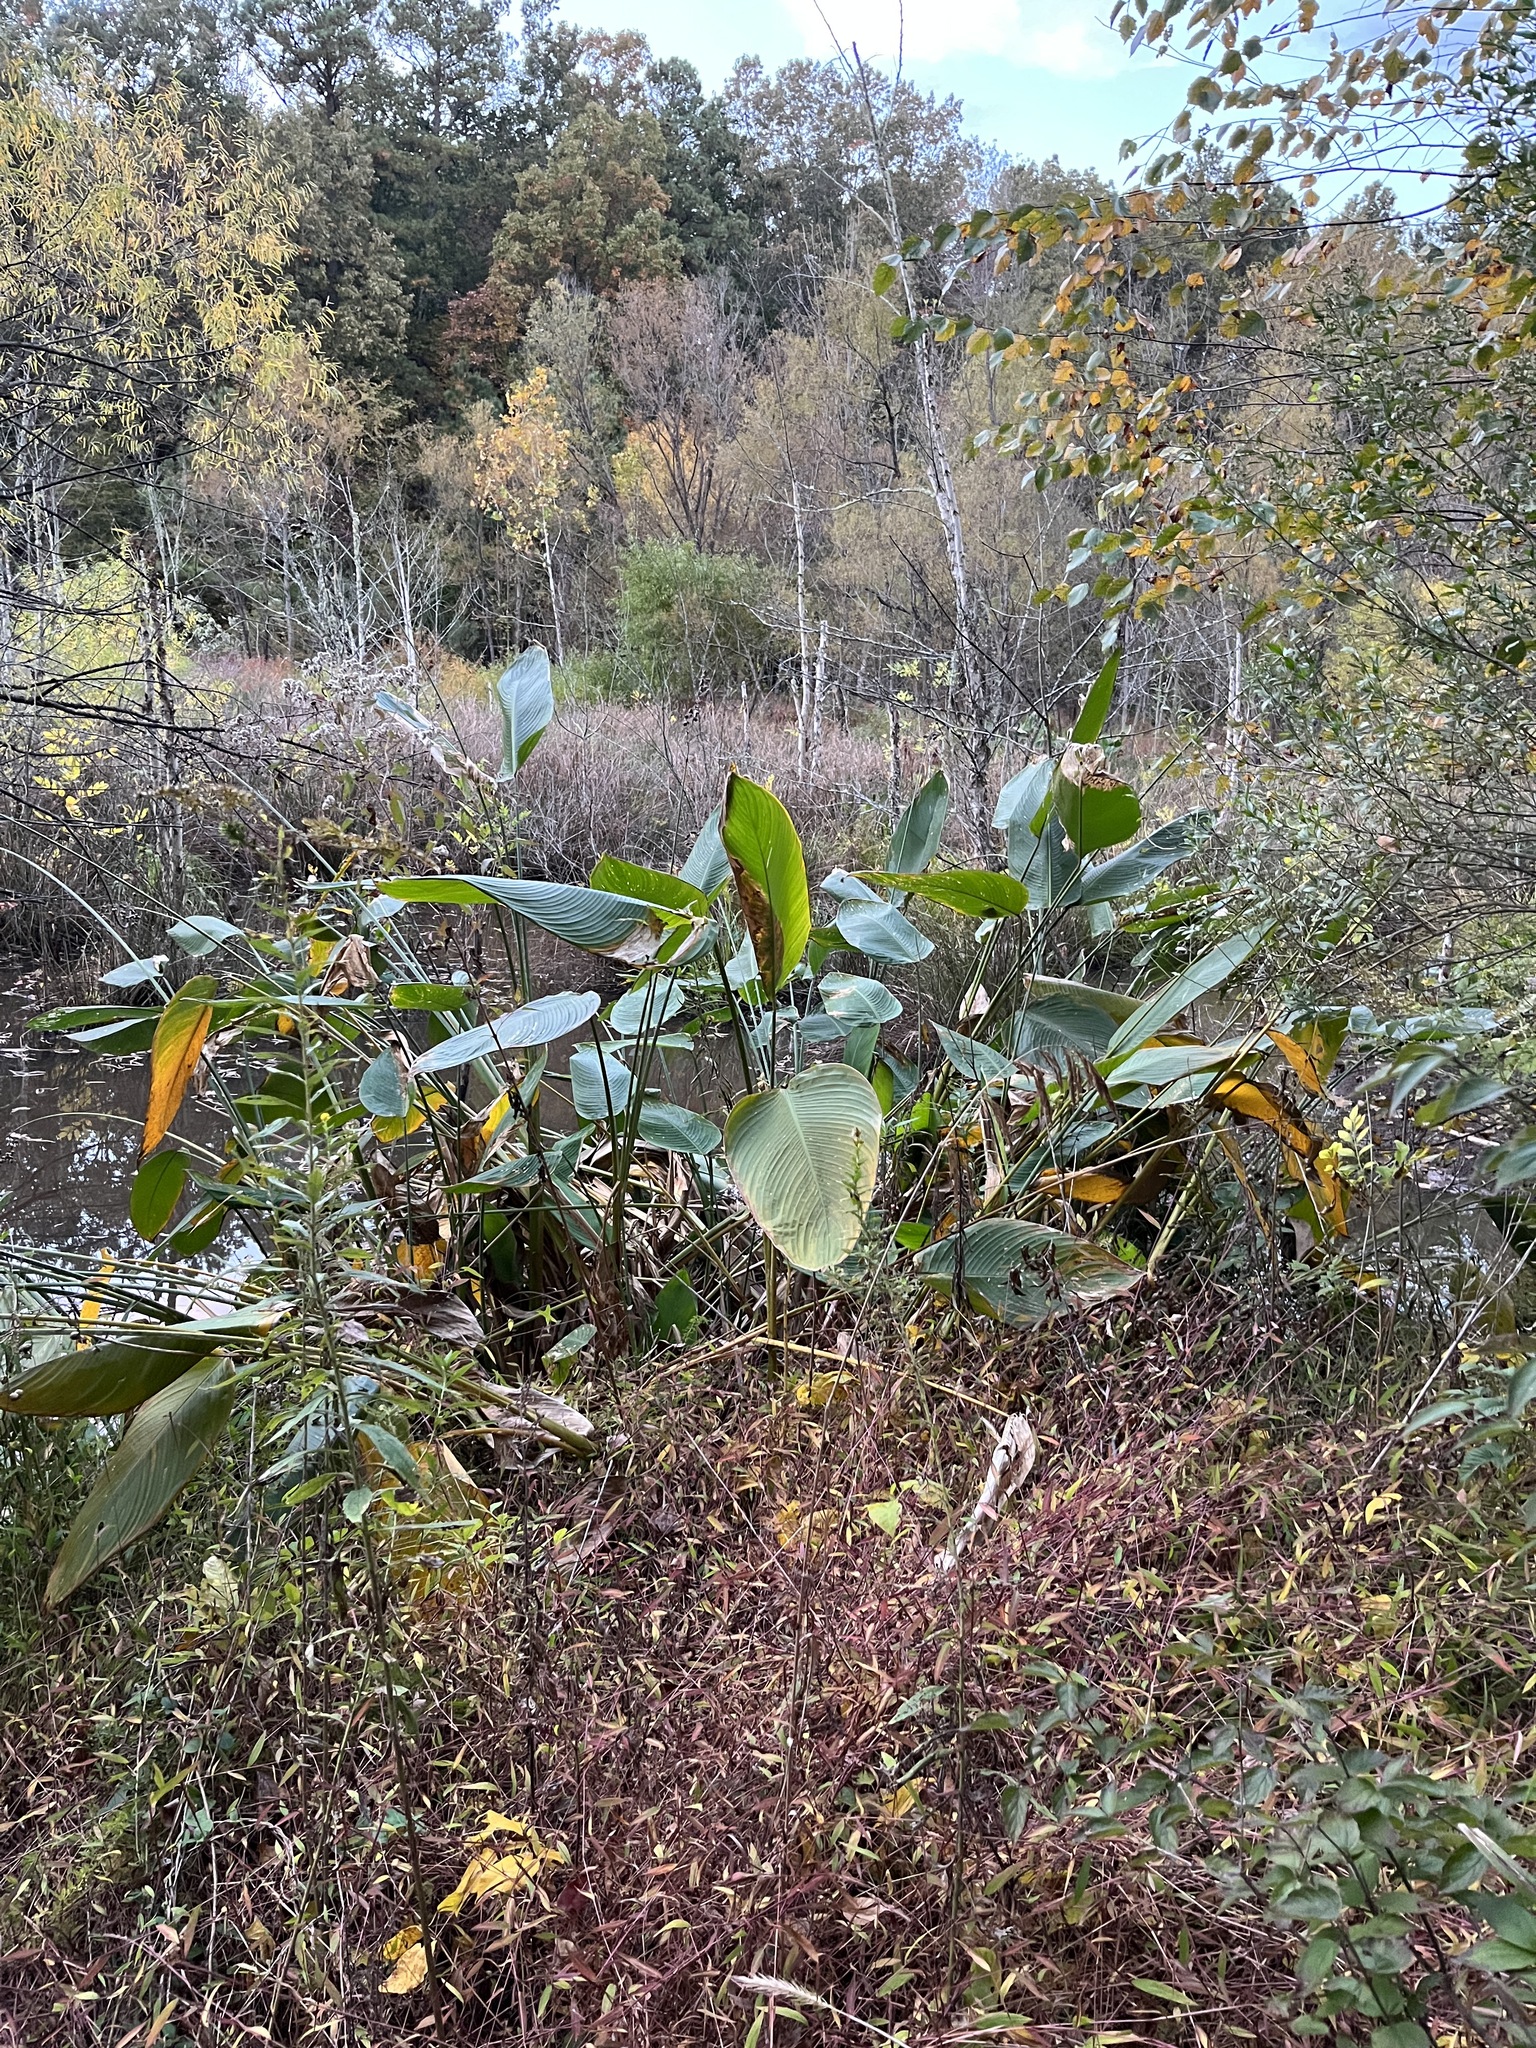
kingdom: Plantae
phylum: Tracheophyta
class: Liliopsida
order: Zingiberales
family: Marantaceae
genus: Thalia
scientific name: Thalia dealbata
